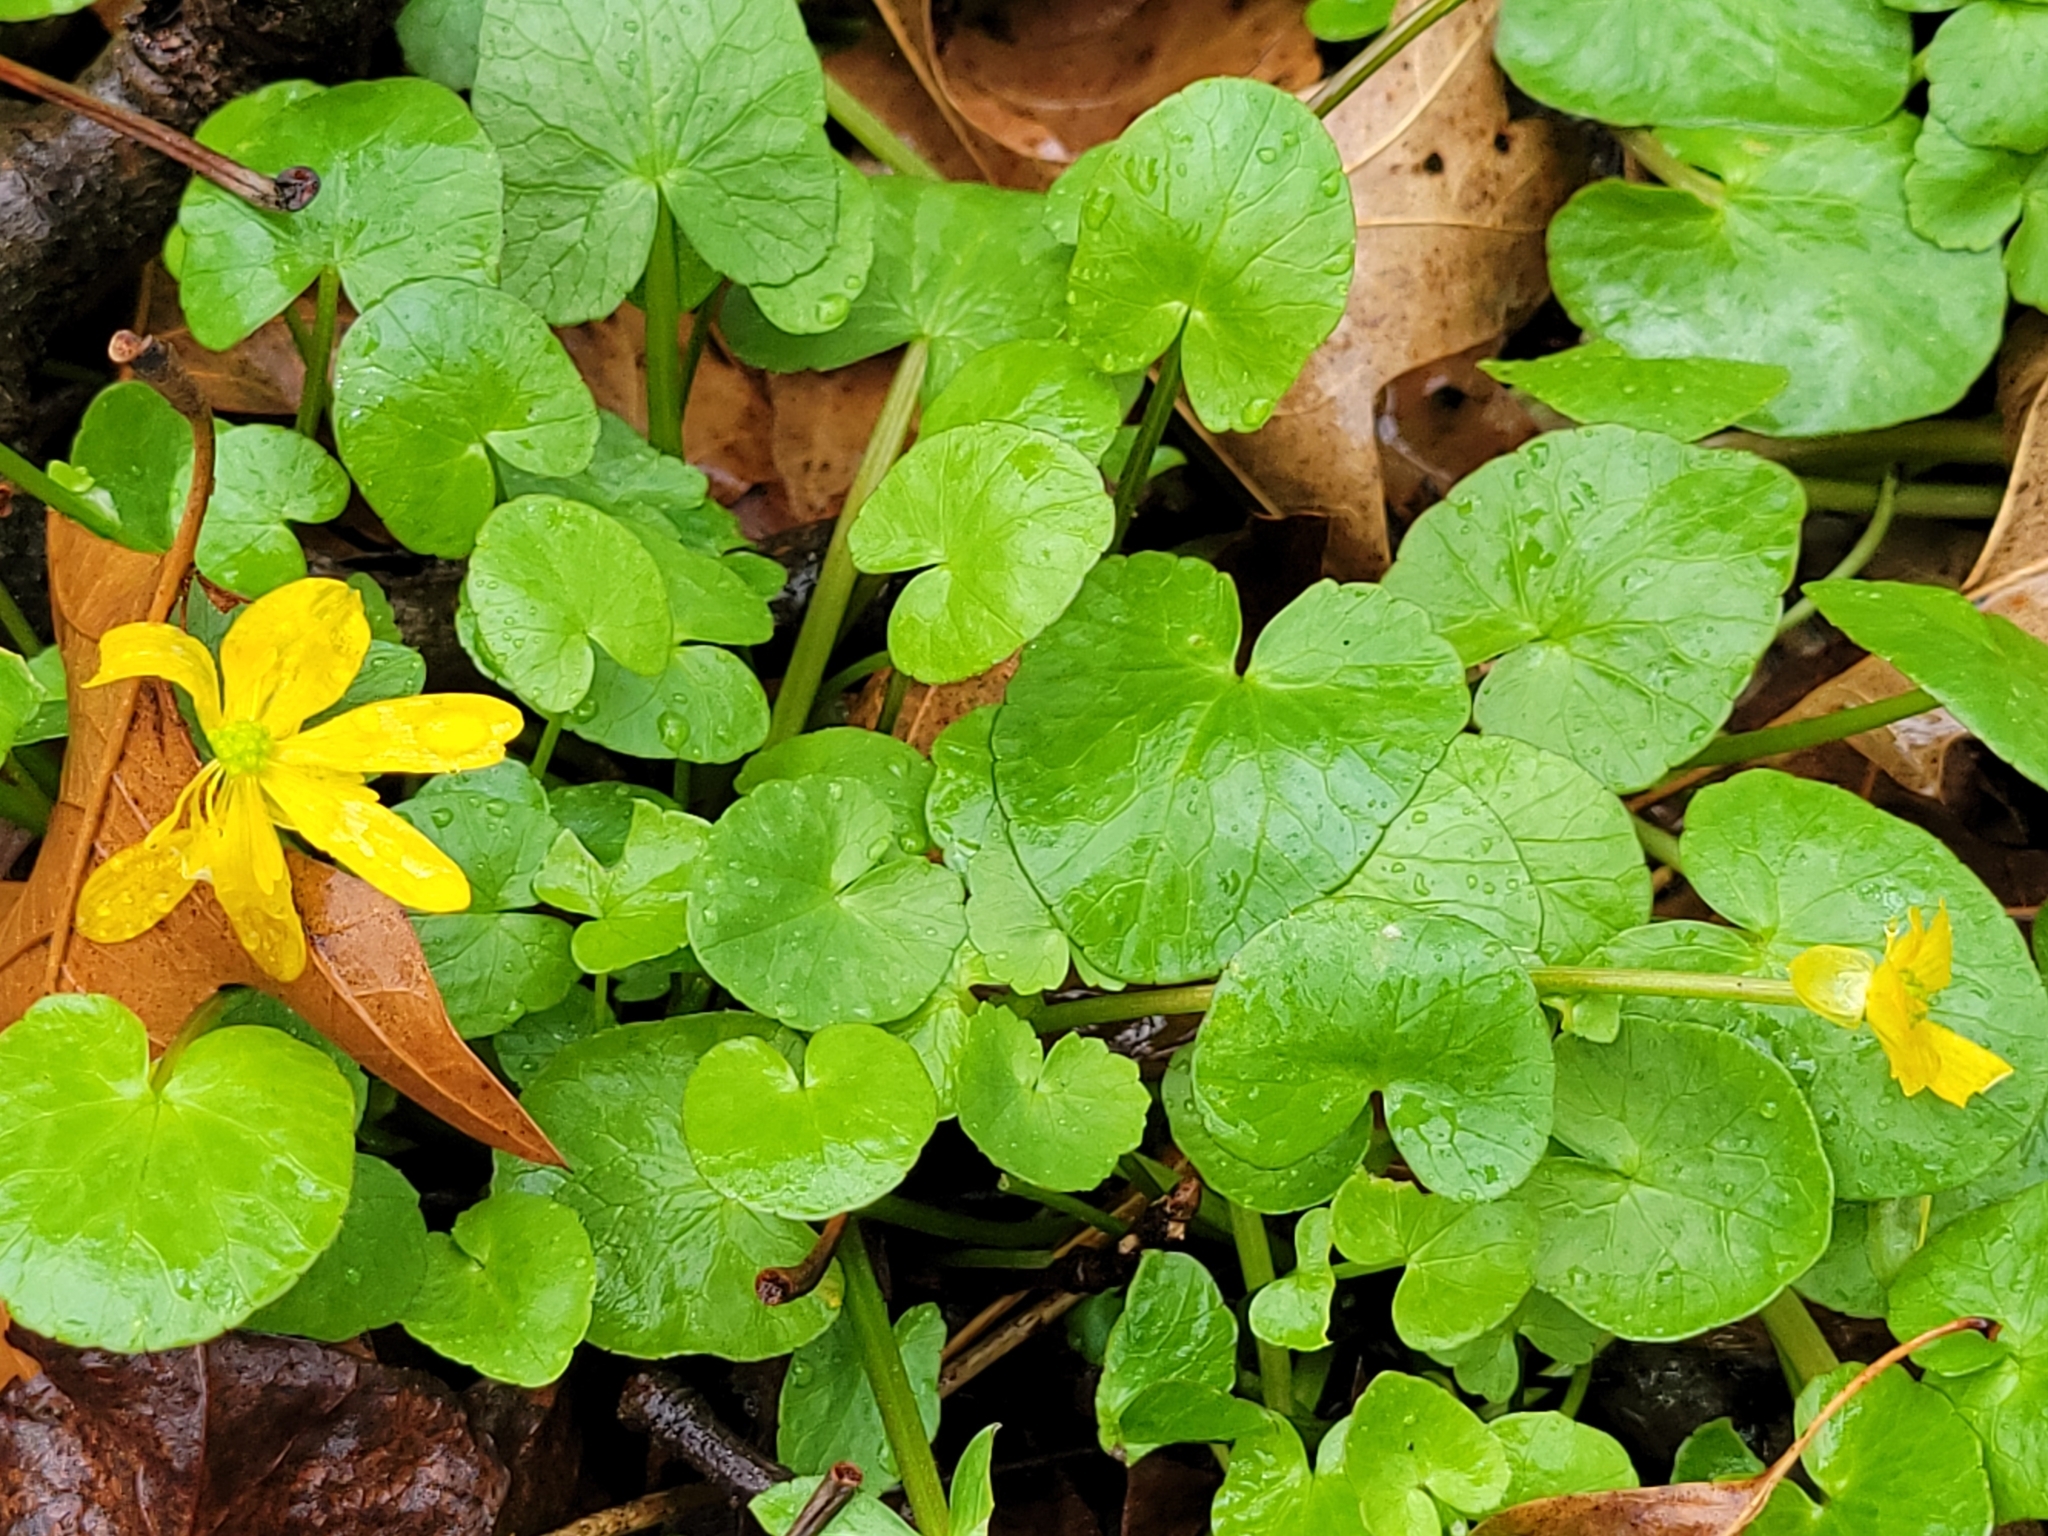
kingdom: Plantae
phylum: Tracheophyta
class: Magnoliopsida
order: Ranunculales
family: Ranunculaceae
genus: Ficaria
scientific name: Ficaria verna
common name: Lesser celandine
